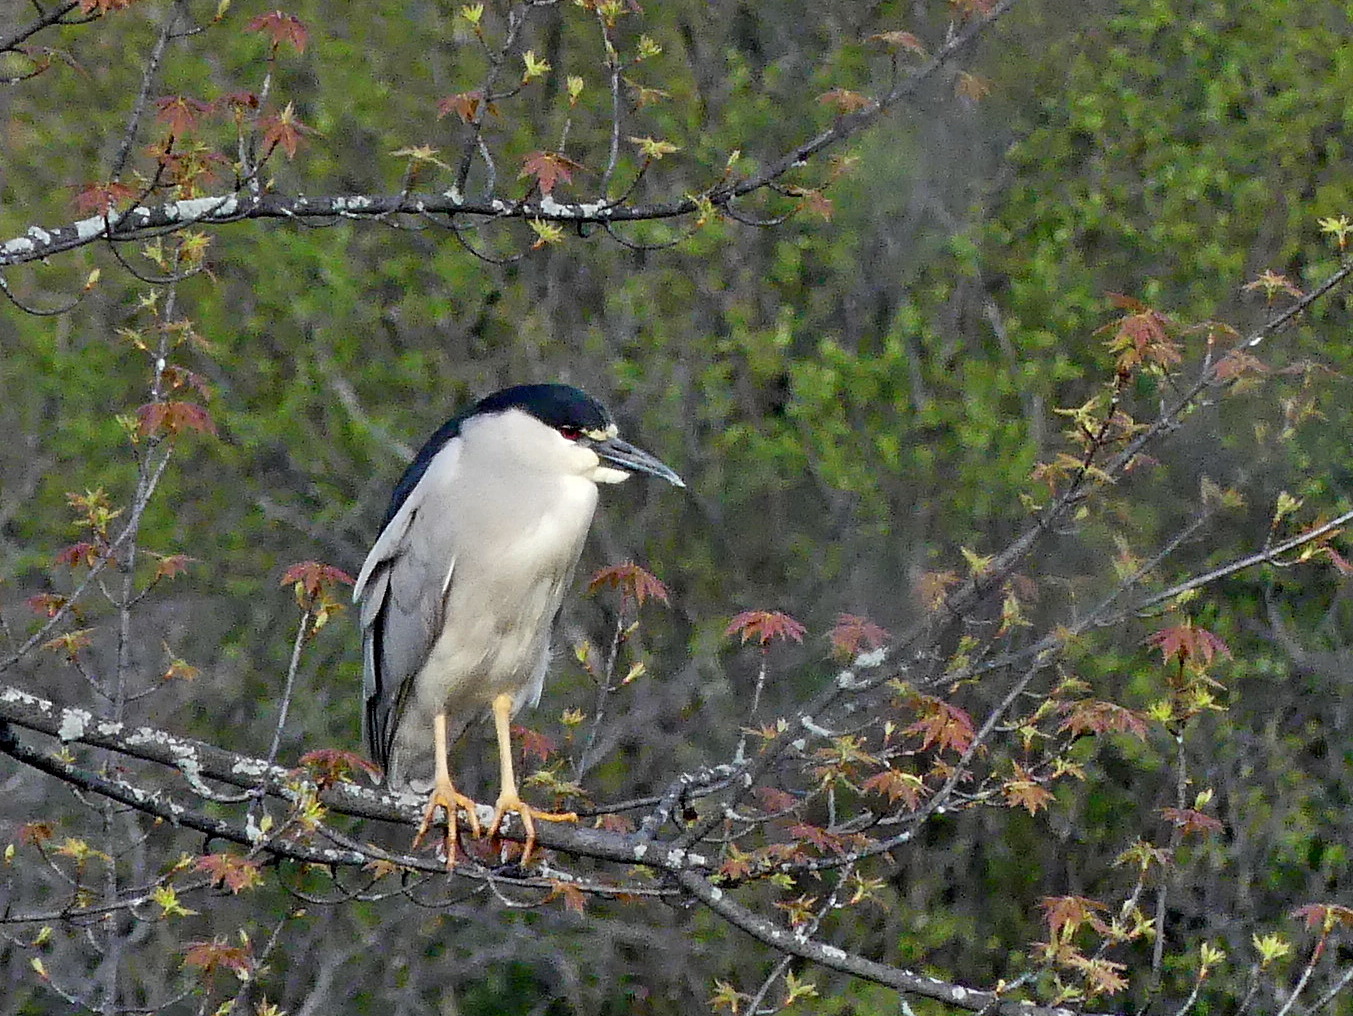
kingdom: Animalia
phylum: Chordata
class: Aves
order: Pelecaniformes
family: Ardeidae
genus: Nycticorax
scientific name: Nycticorax nycticorax
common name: Black-crowned night heron
